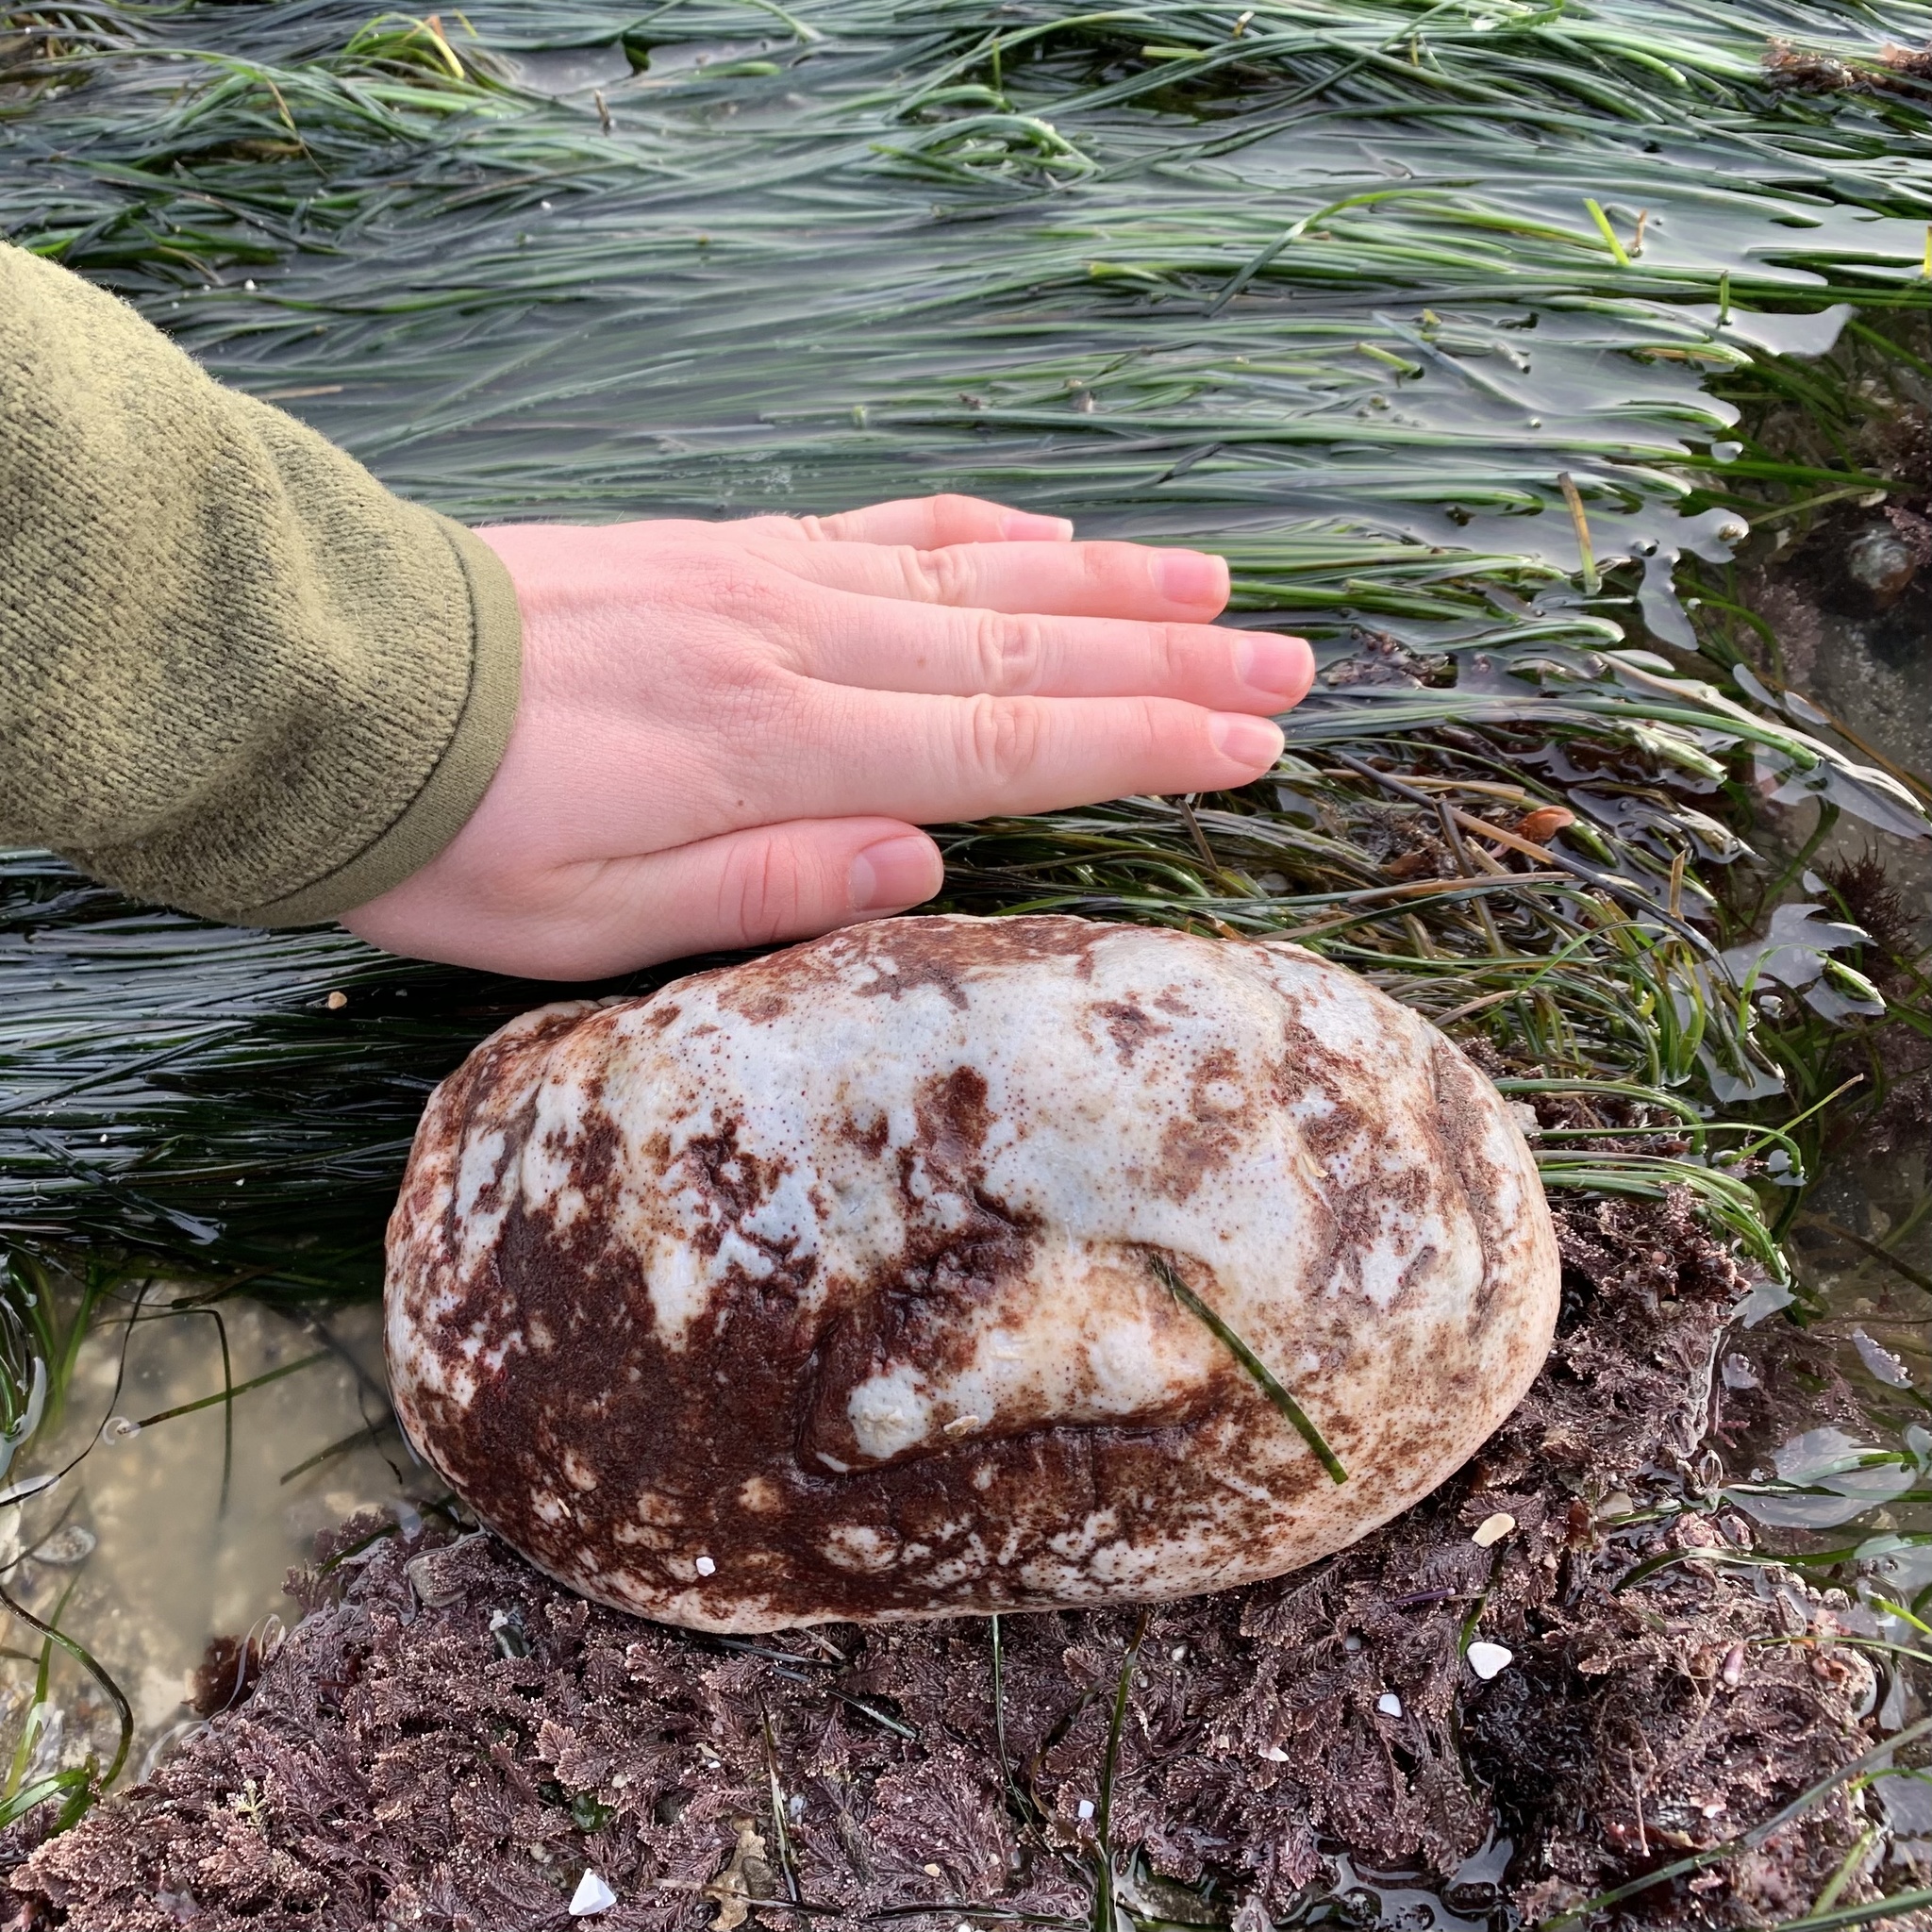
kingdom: Animalia
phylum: Mollusca
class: Polyplacophora
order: Chitonida
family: Acanthochitonidae
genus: Cryptochiton
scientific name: Cryptochiton stelleri
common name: Giant pacific chiton
